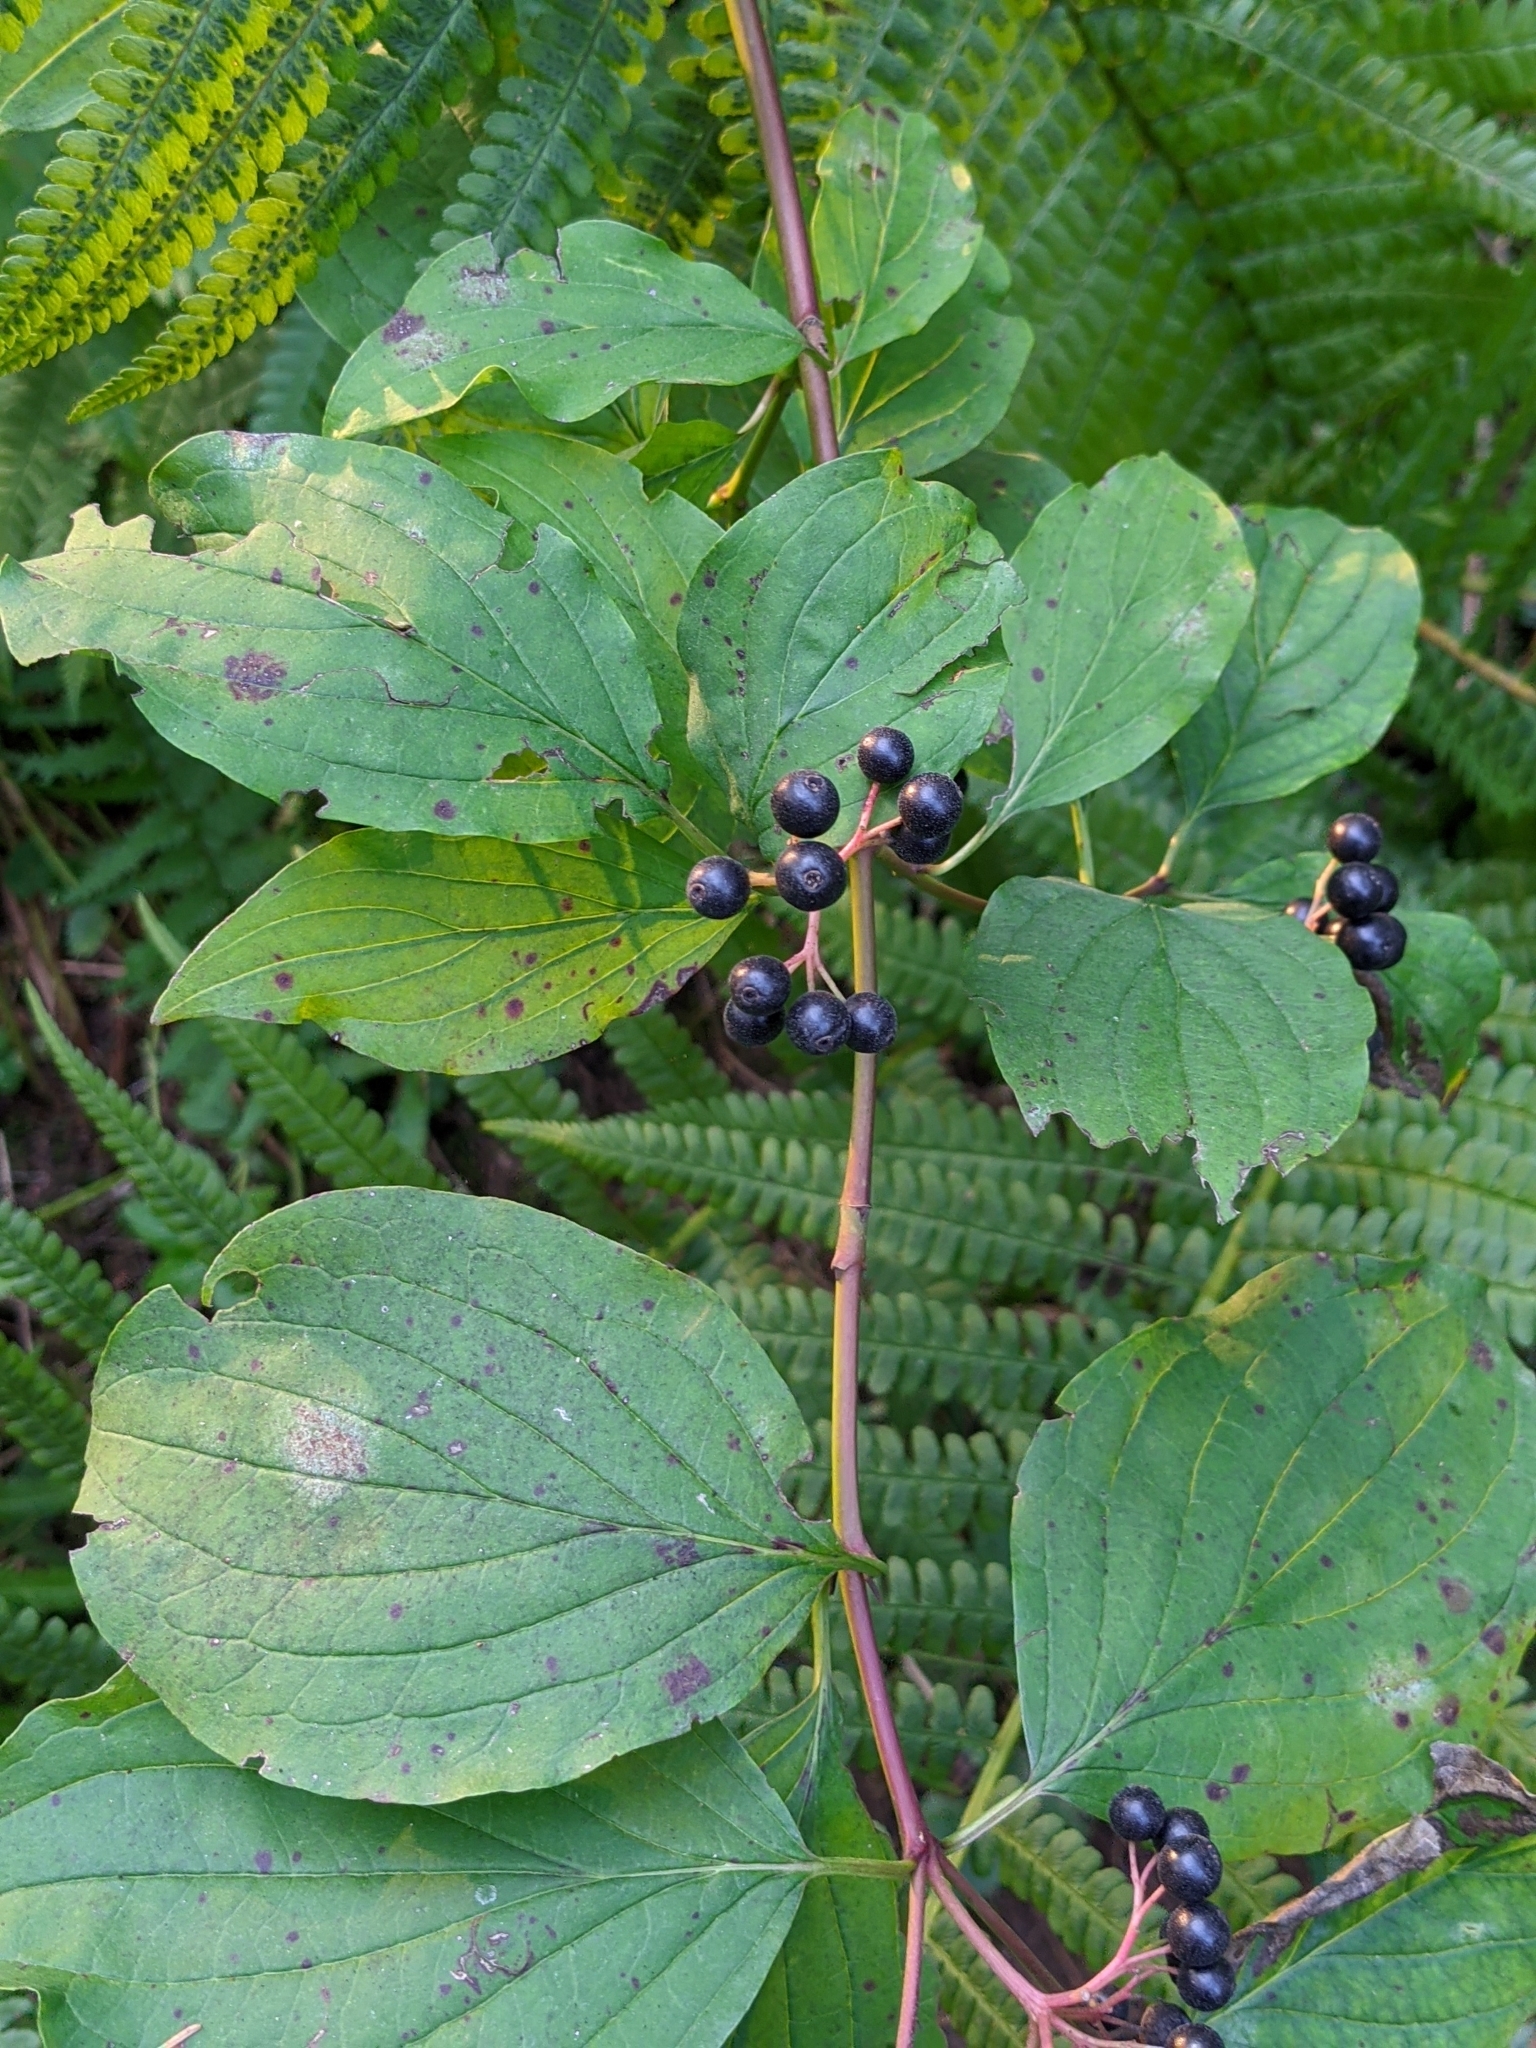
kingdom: Plantae
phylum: Tracheophyta
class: Magnoliopsida
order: Cornales
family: Cornaceae
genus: Cornus
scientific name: Cornus sanguinea
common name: Dogwood
